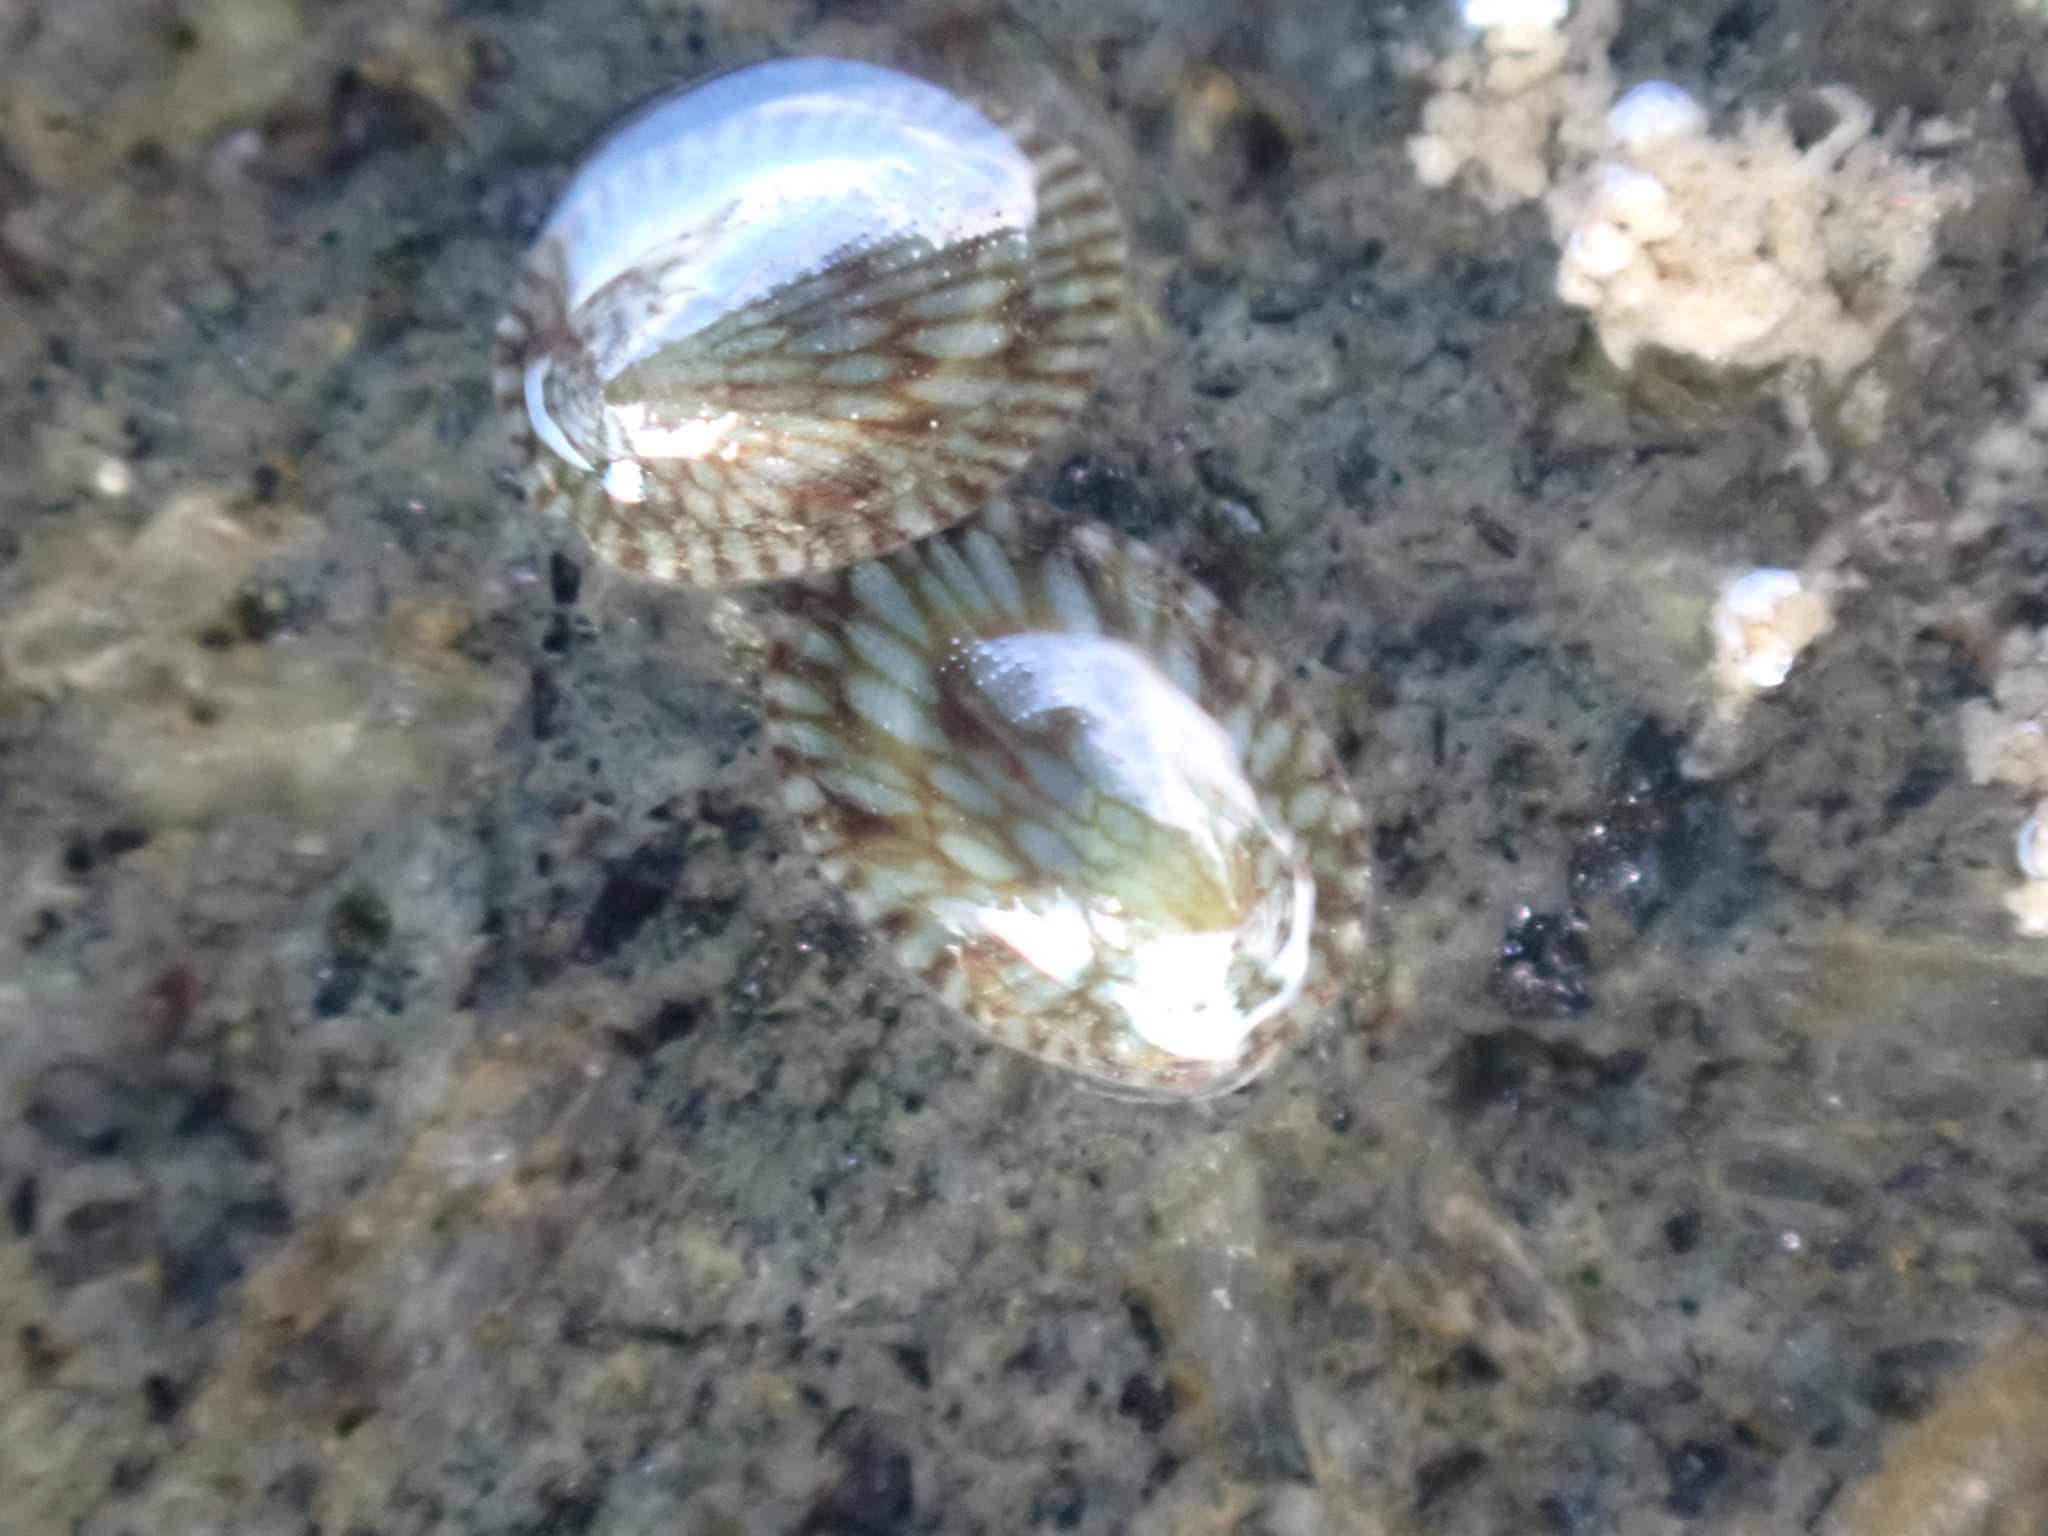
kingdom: Animalia
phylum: Mollusca
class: Gastropoda
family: Lottiidae
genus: Notoacmea
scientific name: Notoacmea
